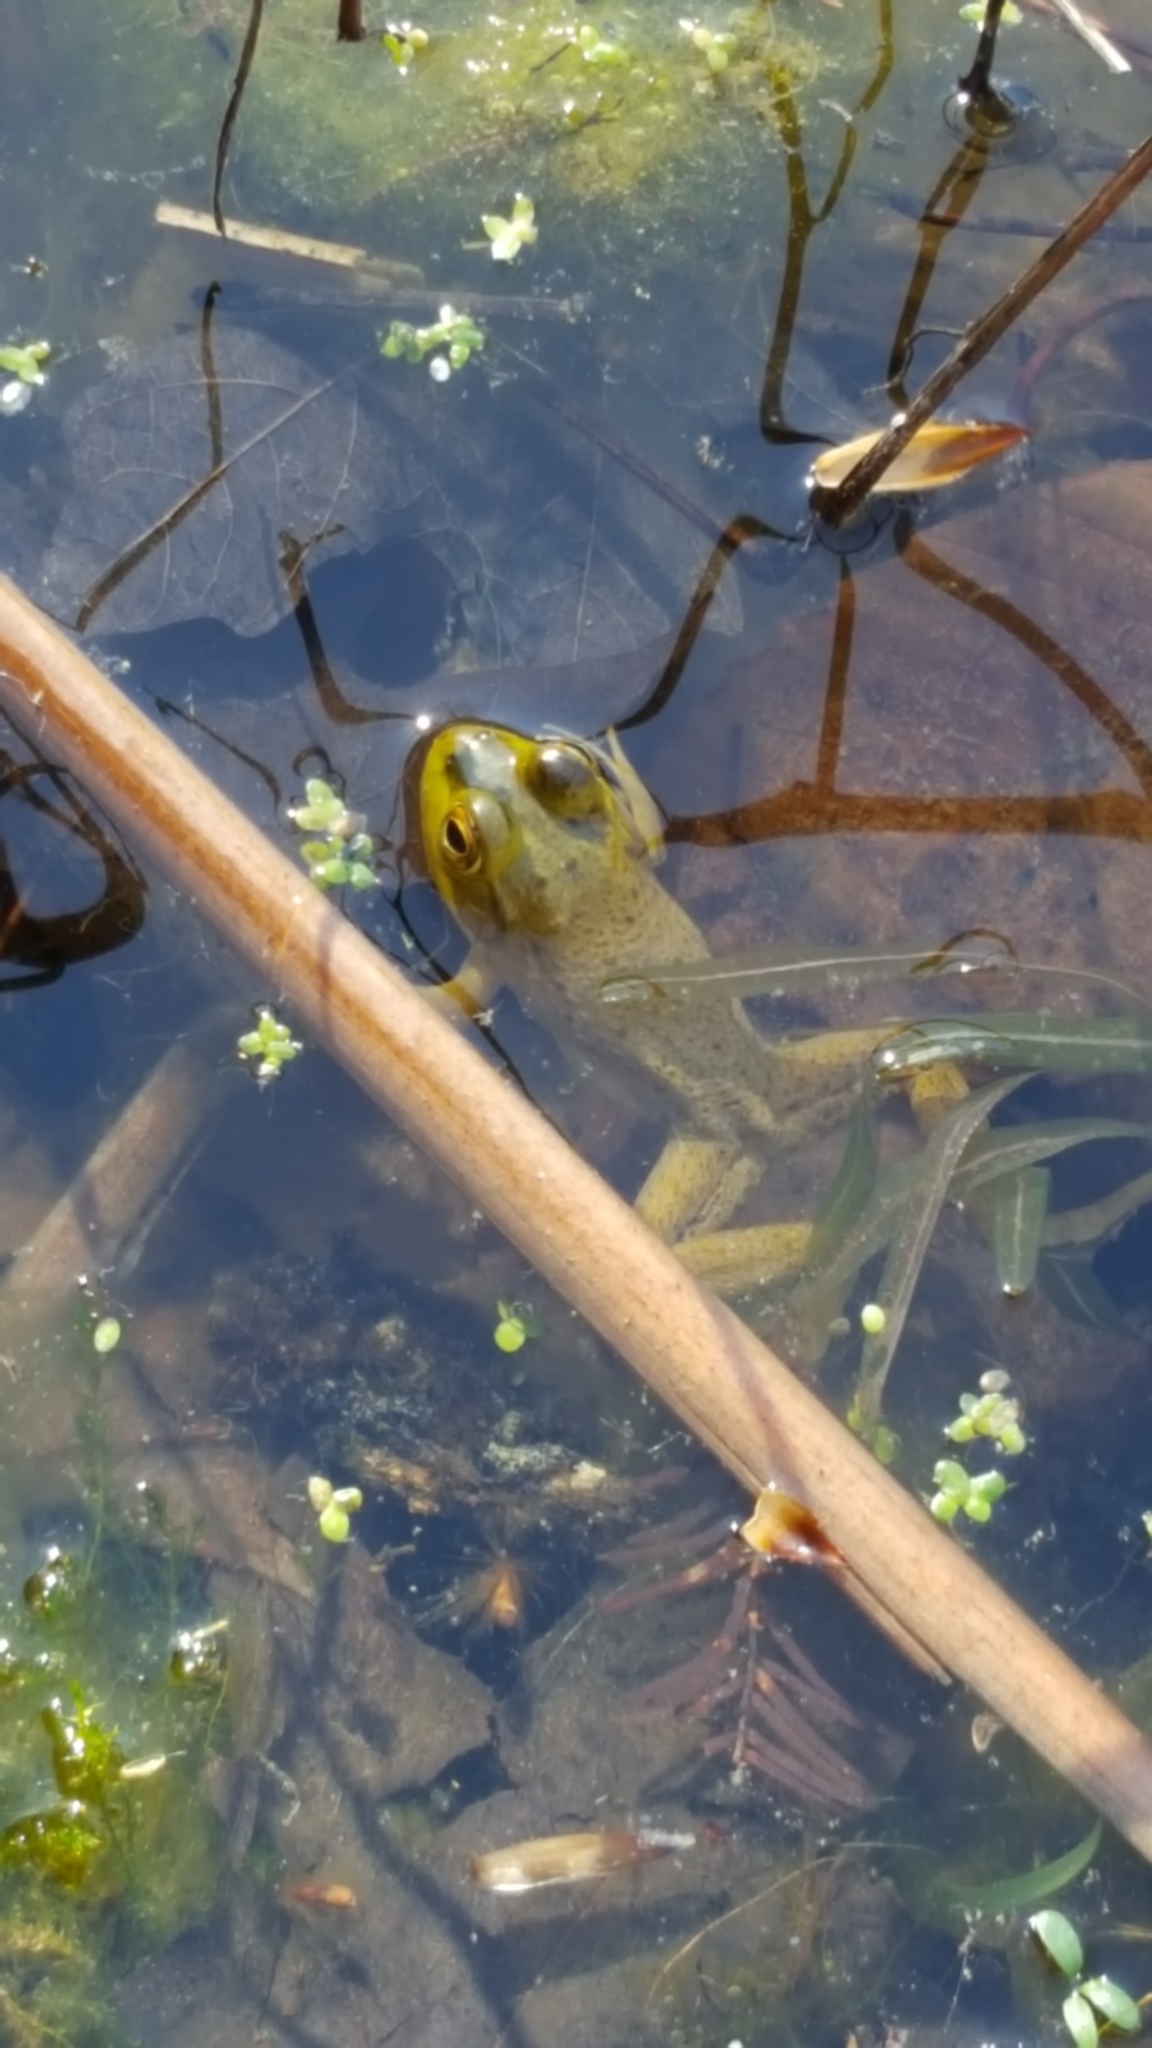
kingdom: Animalia
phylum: Chordata
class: Amphibia
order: Anura
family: Ranidae
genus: Lithobates
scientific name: Lithobates catesbeianus
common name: American bullfrog
